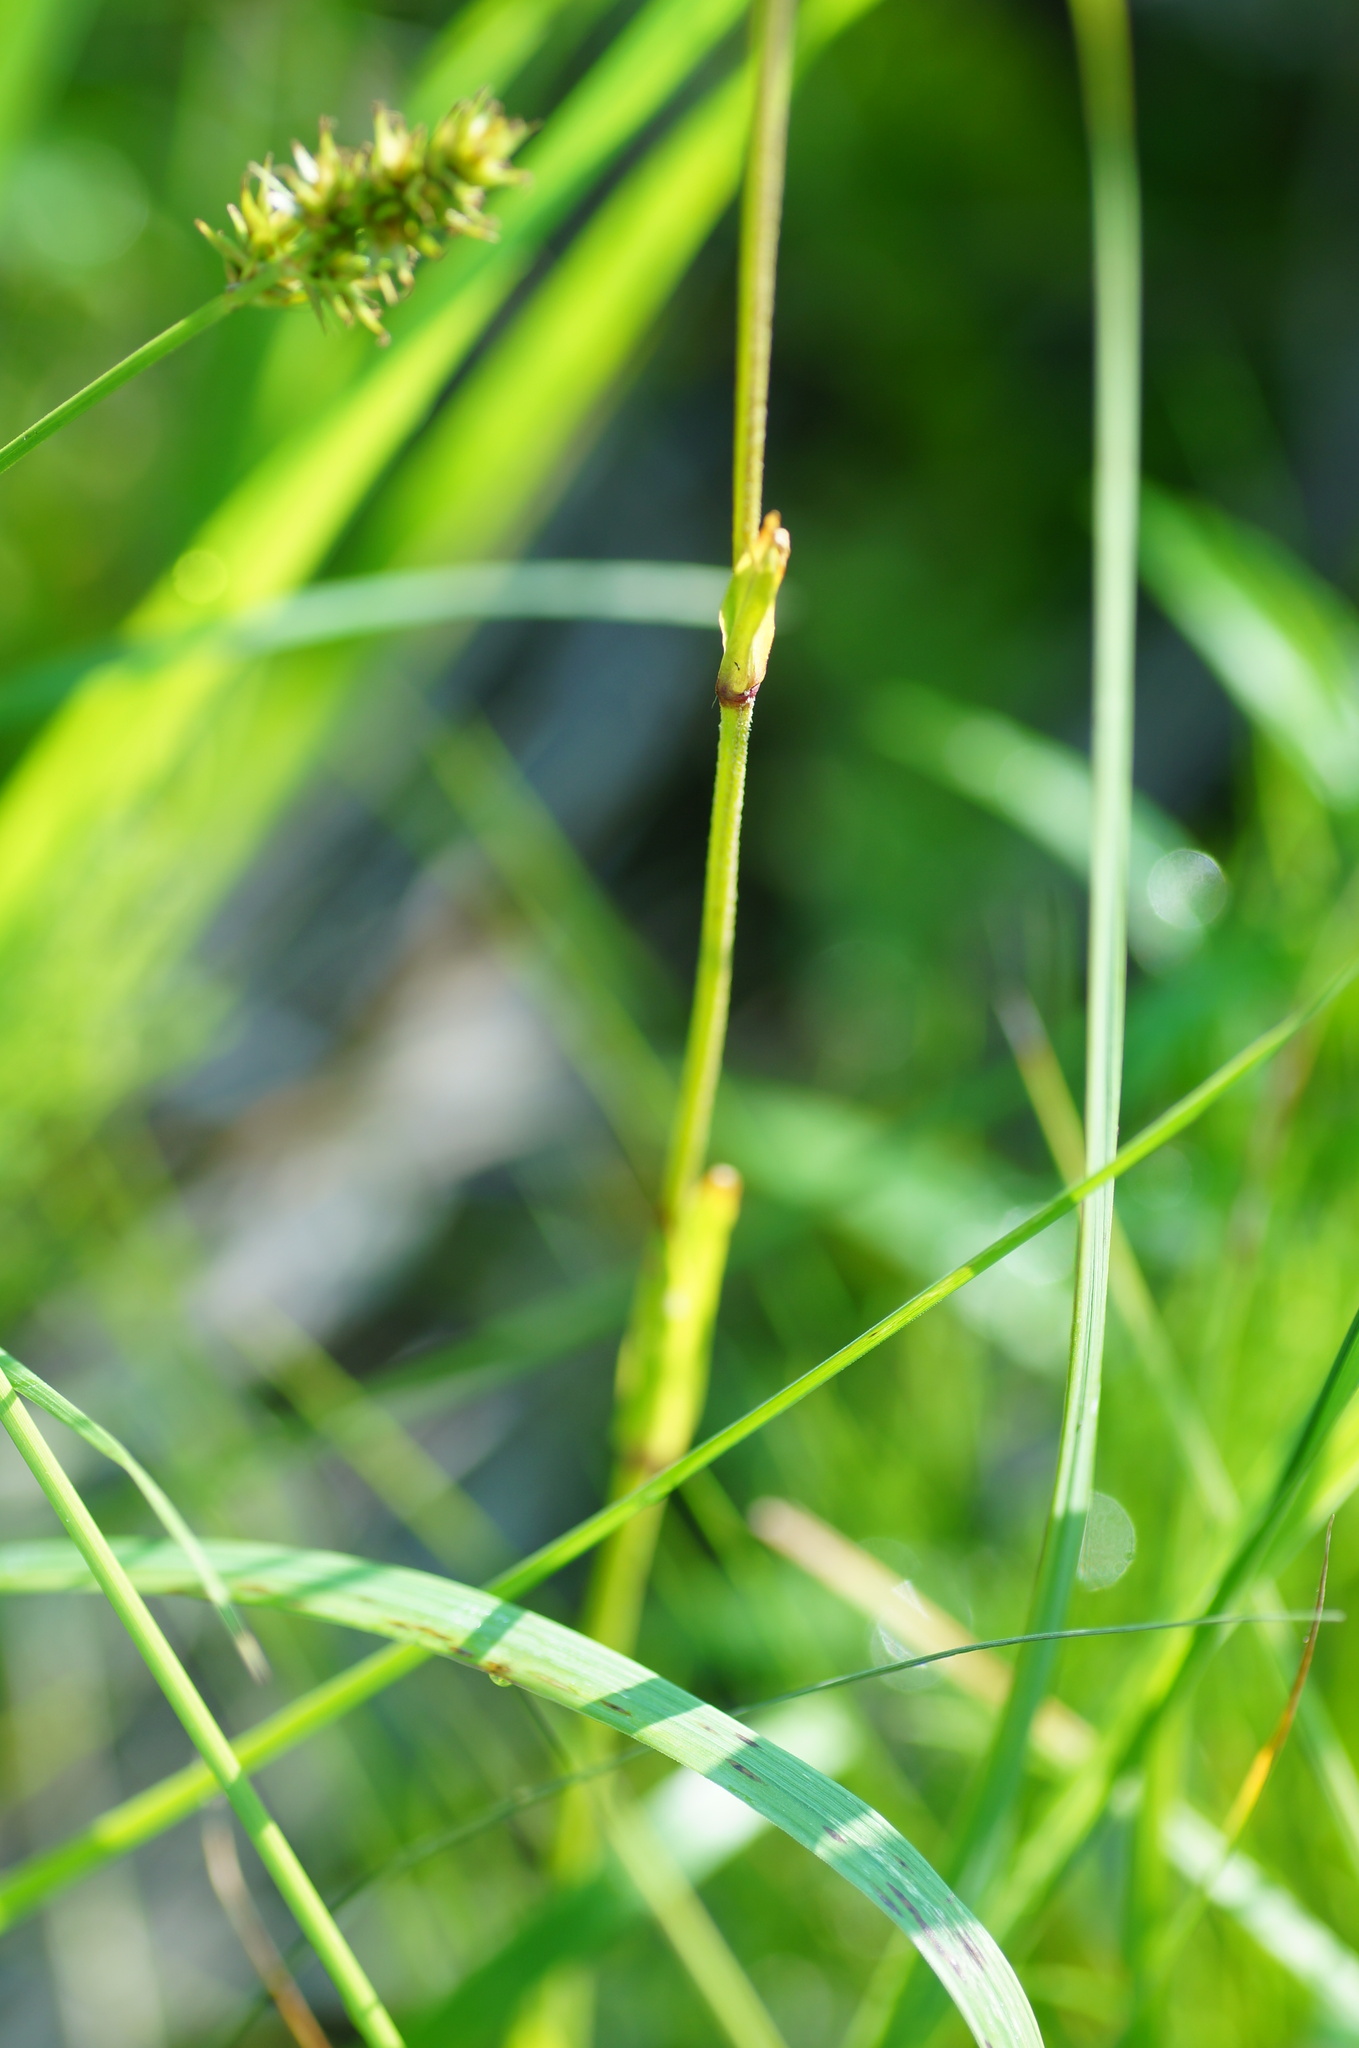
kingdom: Plantae
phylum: Tracheophyta
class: Magnoliopsida
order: Caryophyllales
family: Caryophyllaceae
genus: Silene
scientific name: Silene flos-cuculi
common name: Ragged-robin
